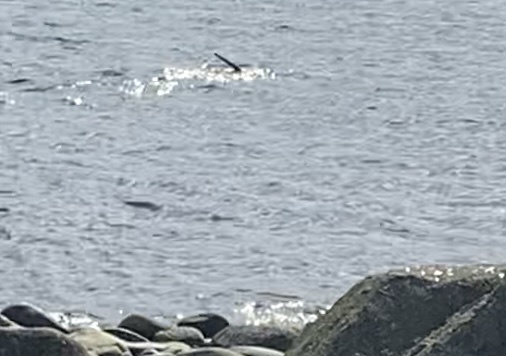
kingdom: Animalia
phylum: Chordata
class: Mammalia
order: Carnivora
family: Mustelidae
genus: Lontra
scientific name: Lontra canadensis
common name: North american river otter
